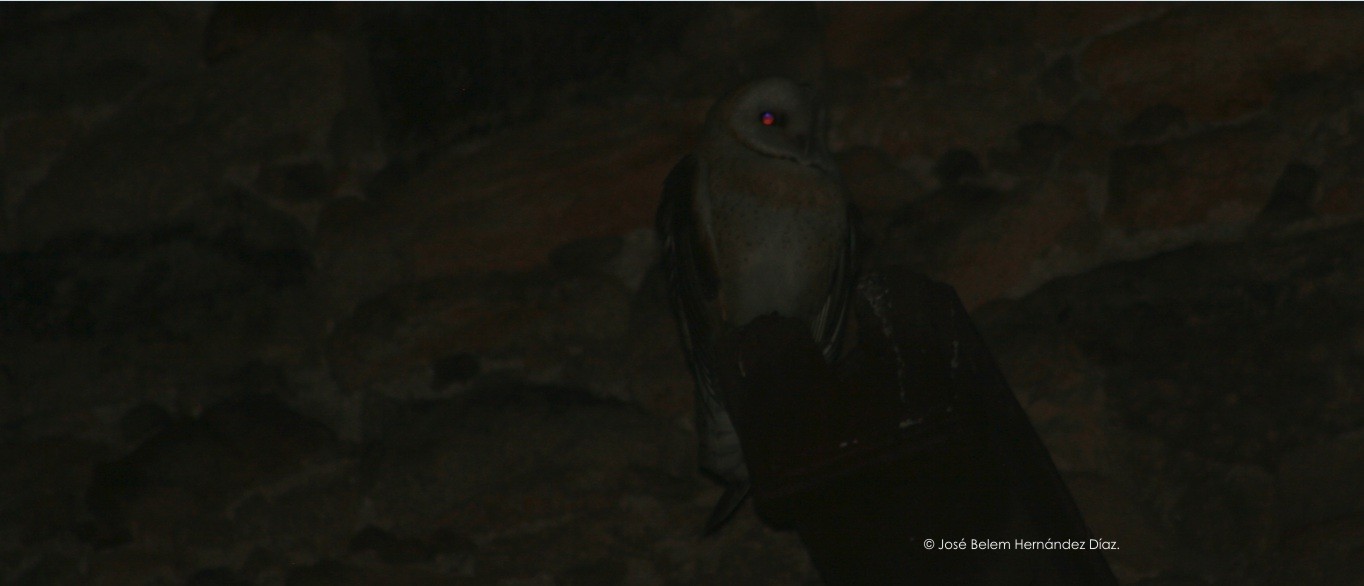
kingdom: Animalia
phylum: Chordata
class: Aves
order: Strigiformes
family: Tytonidae
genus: Tyto
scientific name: Tyto alba
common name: Barn owl
